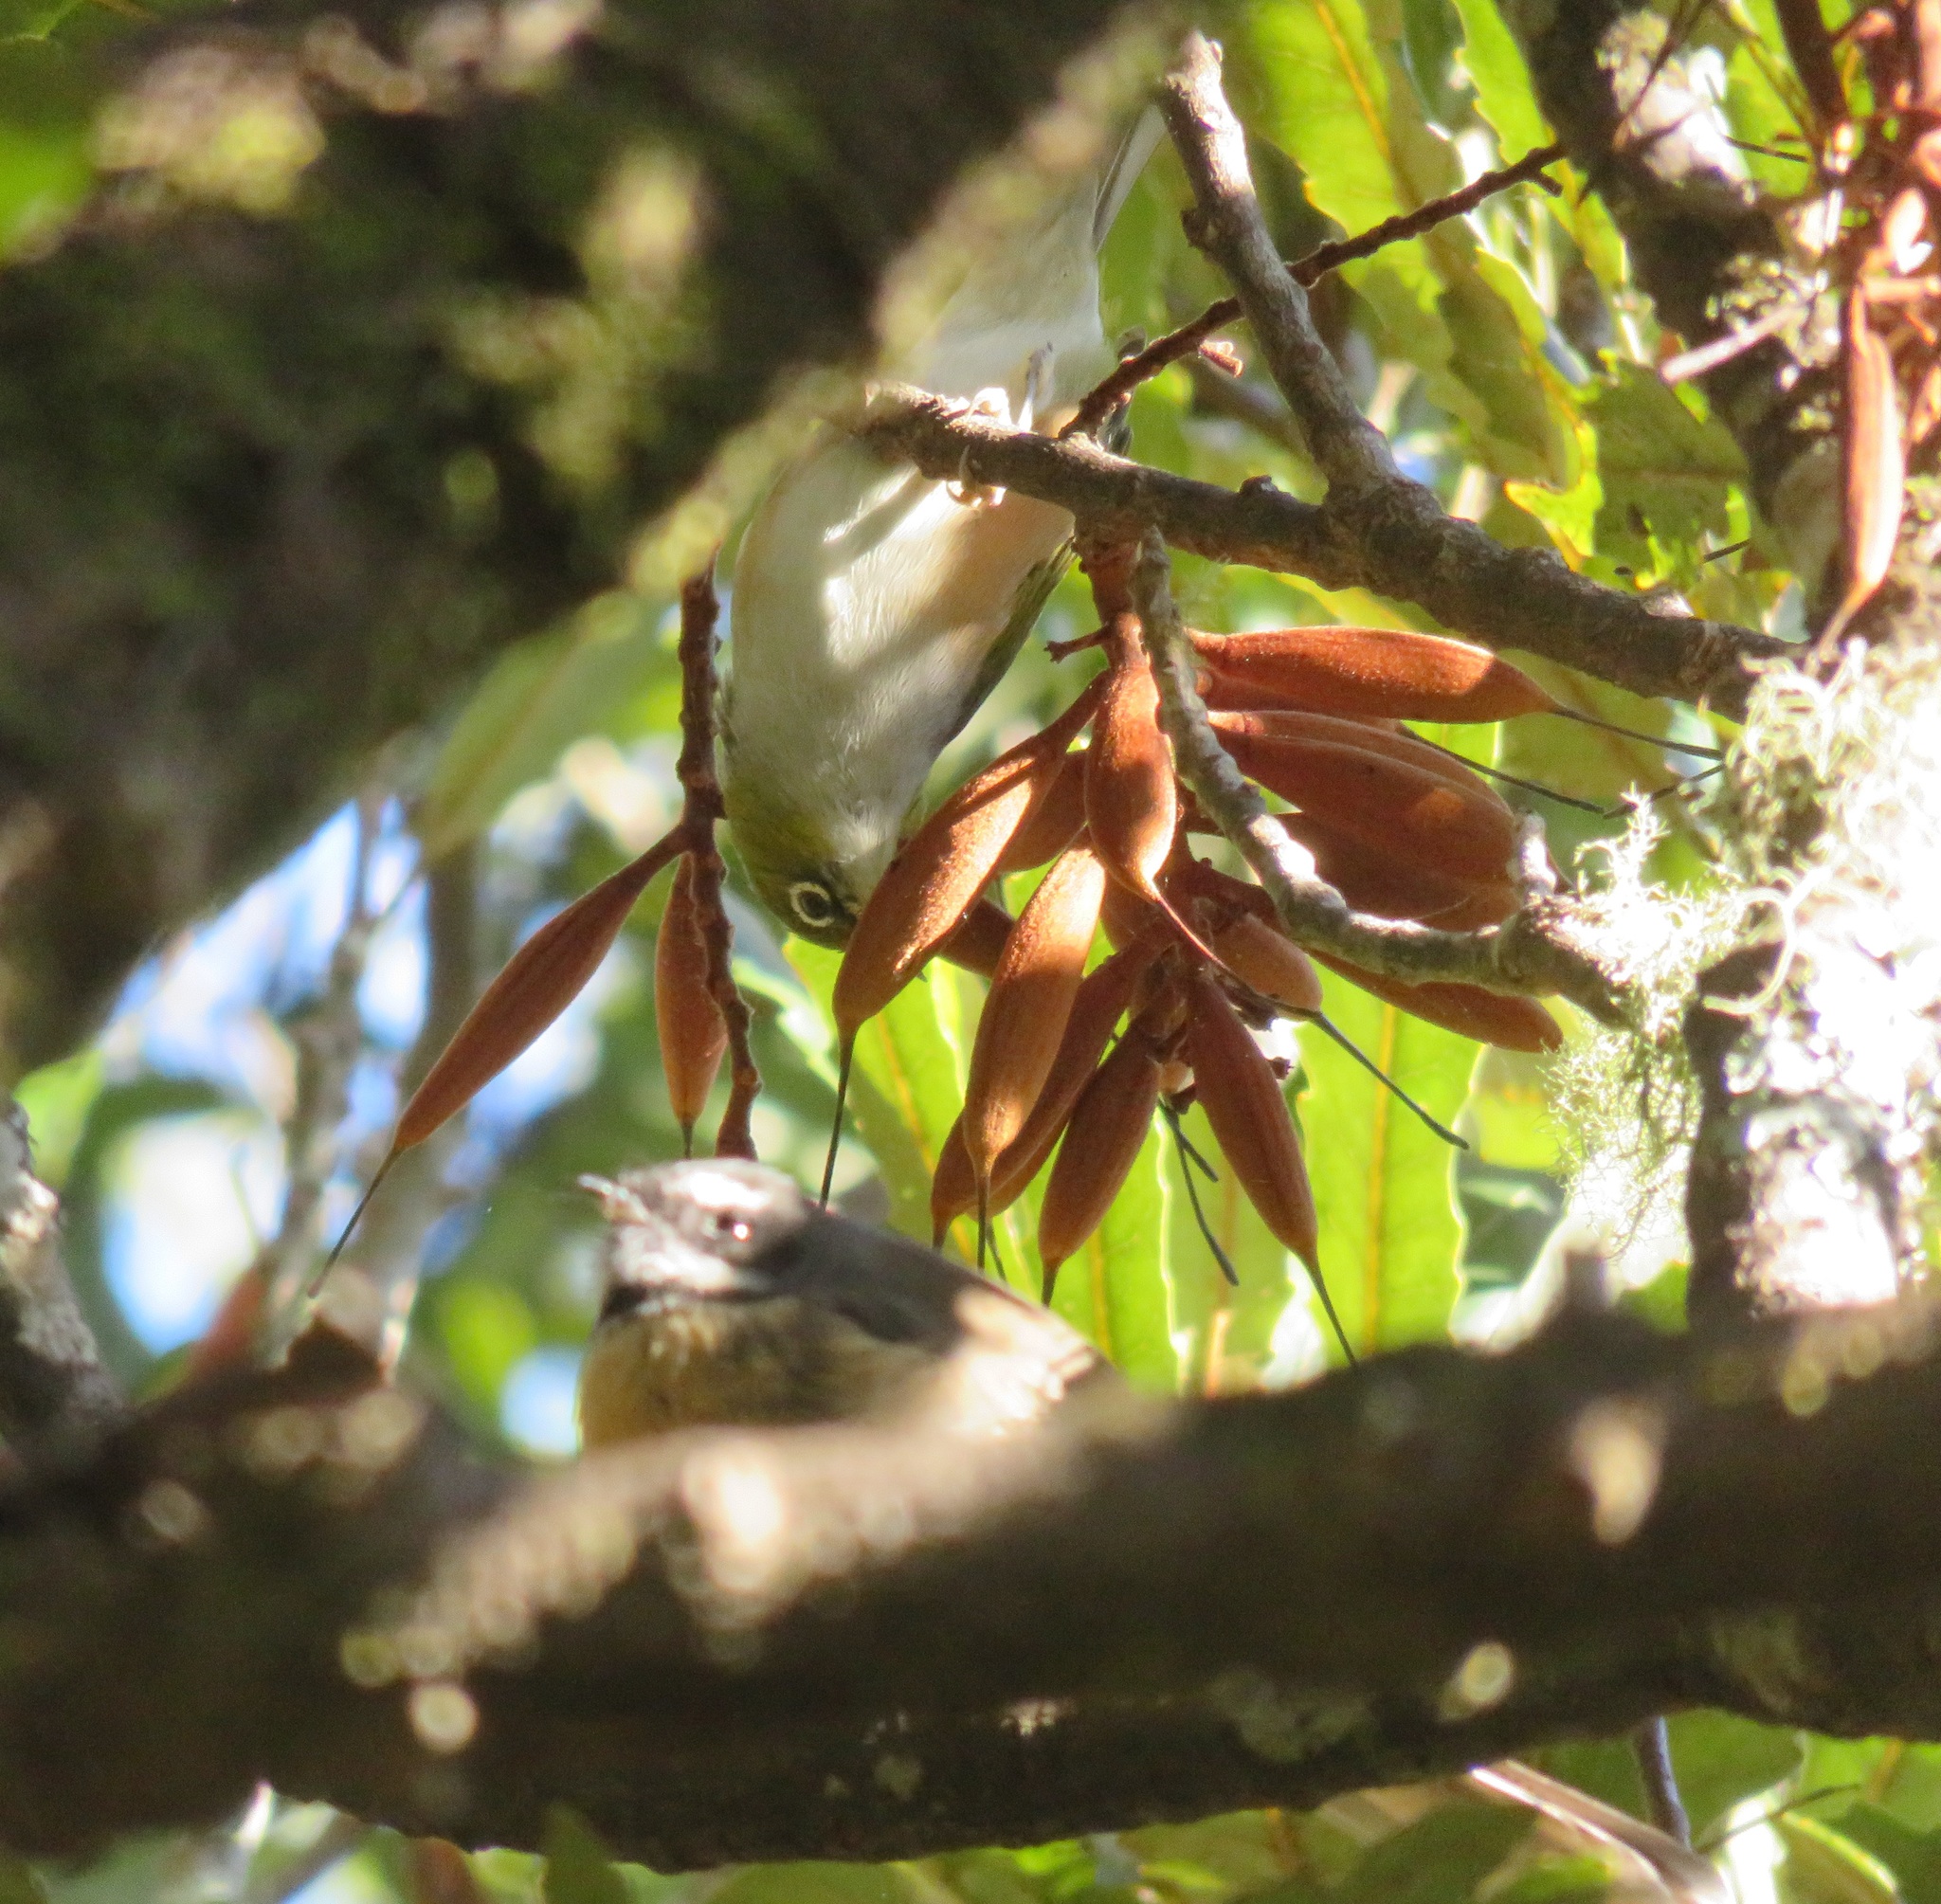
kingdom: Animalia
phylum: Chordata
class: Aves
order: Passeriformes
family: Zosteropidae
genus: Zosterops
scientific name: Zosterops lateralis
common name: Silvereye
